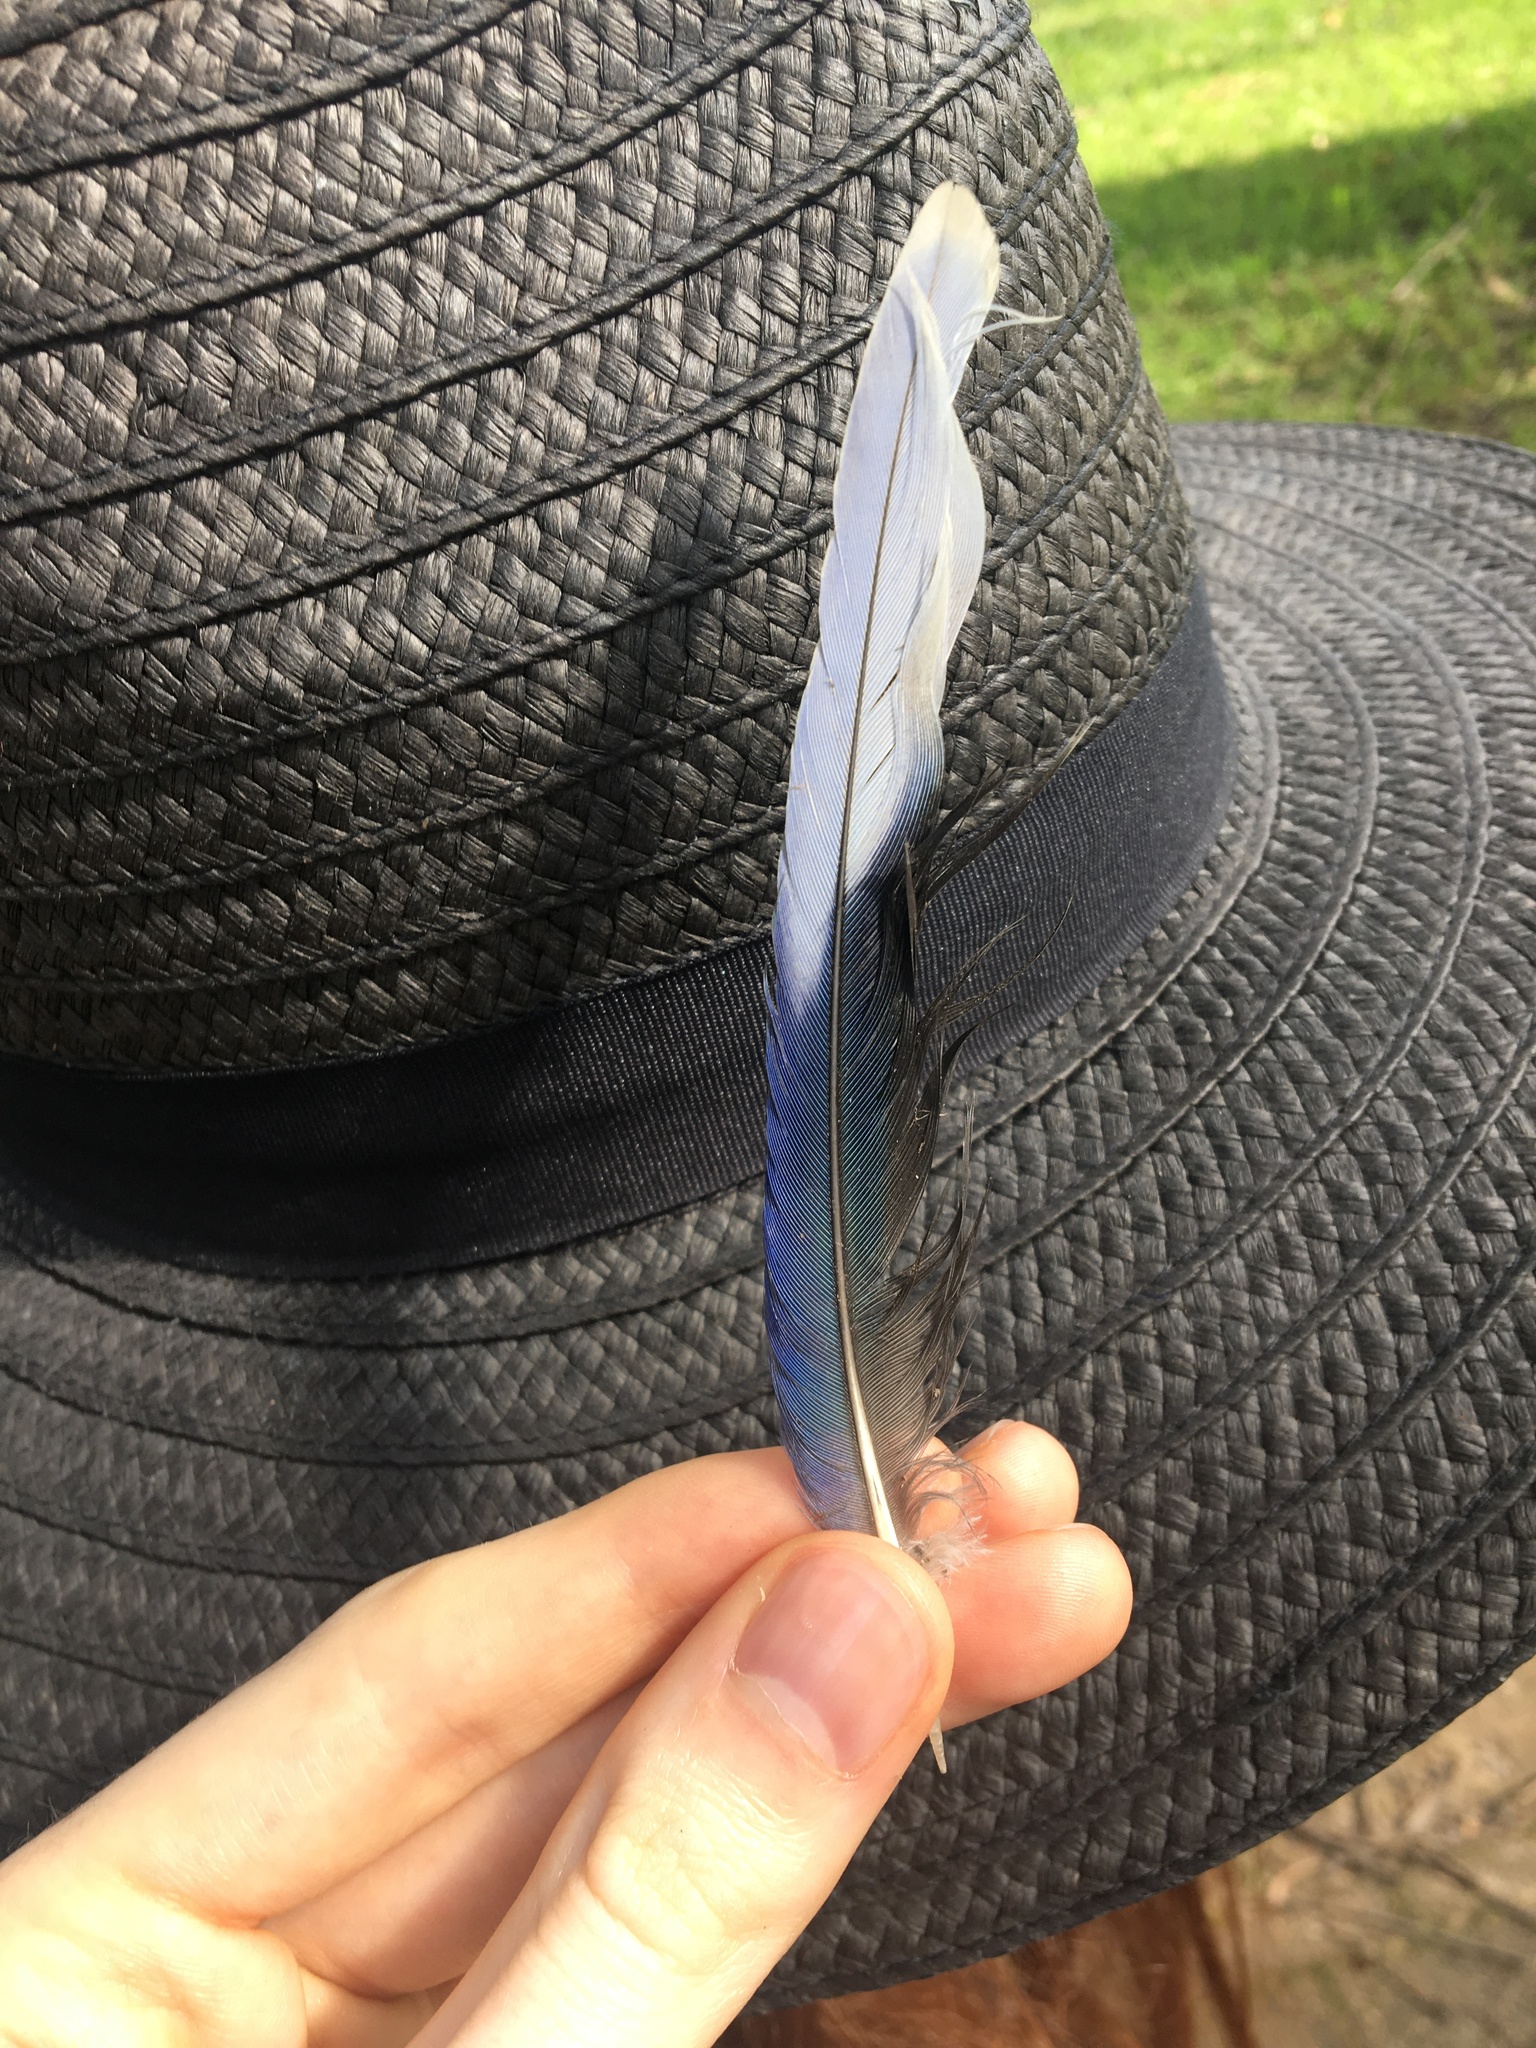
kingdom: Animalia
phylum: Chordata
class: Aves
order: Psittaciformes
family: Psittacidae
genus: Platycercus
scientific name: Platycercus eximius
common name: Eastern rosella
